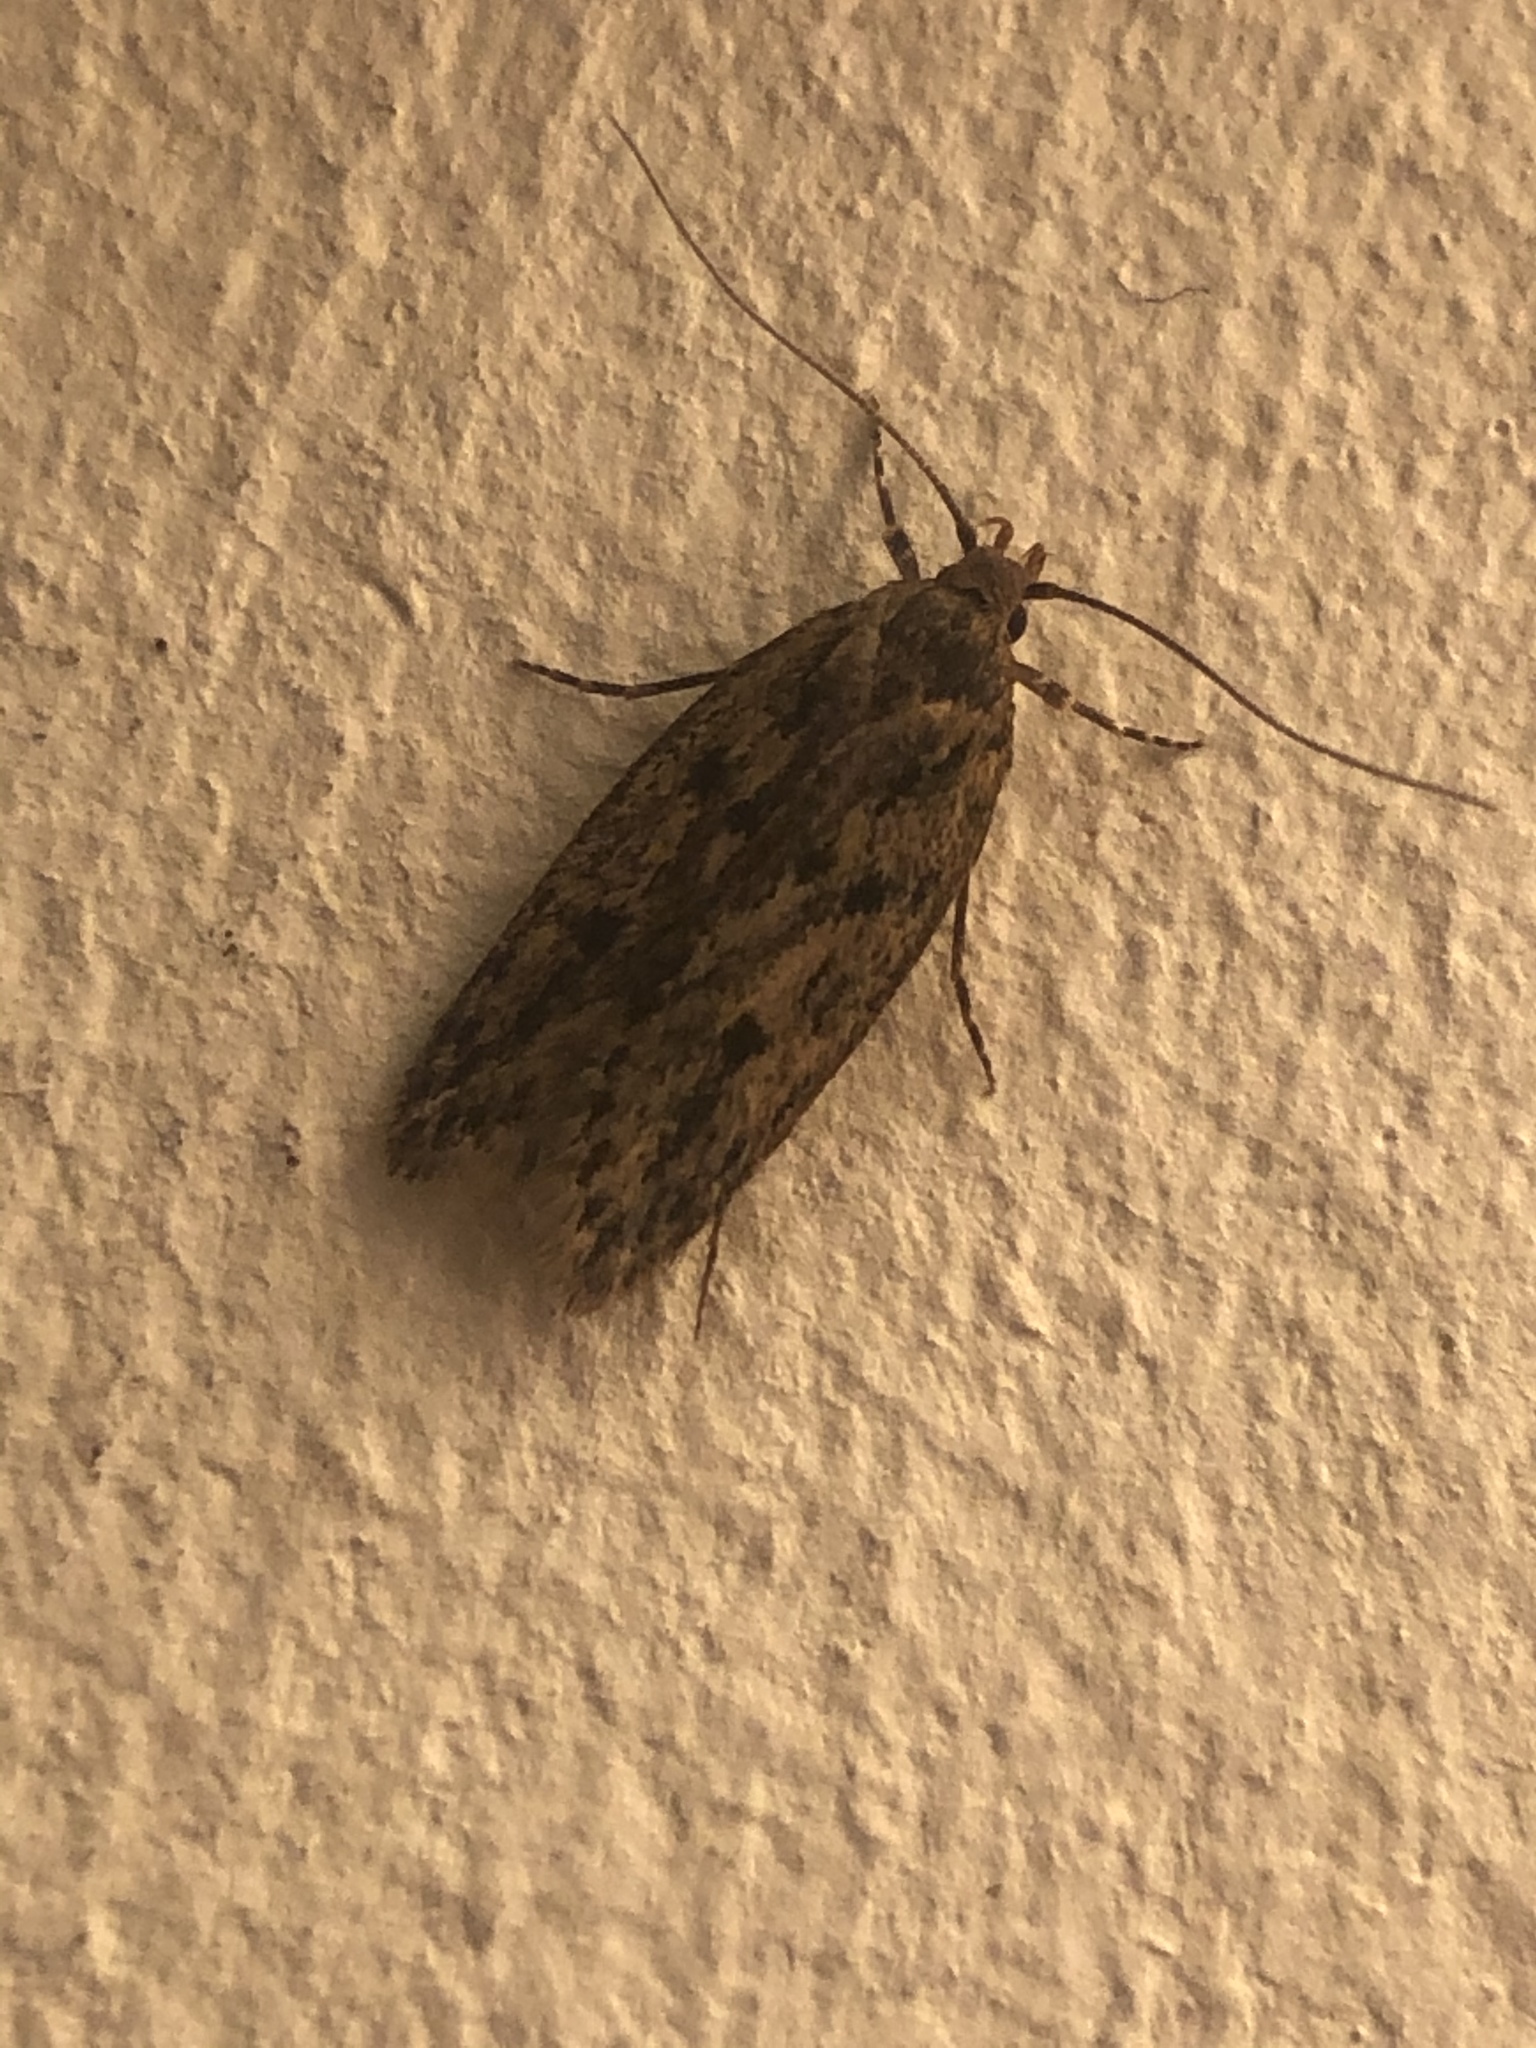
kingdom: Animalia
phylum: Arthropoda
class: Insecta
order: Lepidoptera
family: Oecophoridae
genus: Hofmannophila
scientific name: Hofmannophila pseudospretella
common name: Brown house moth
